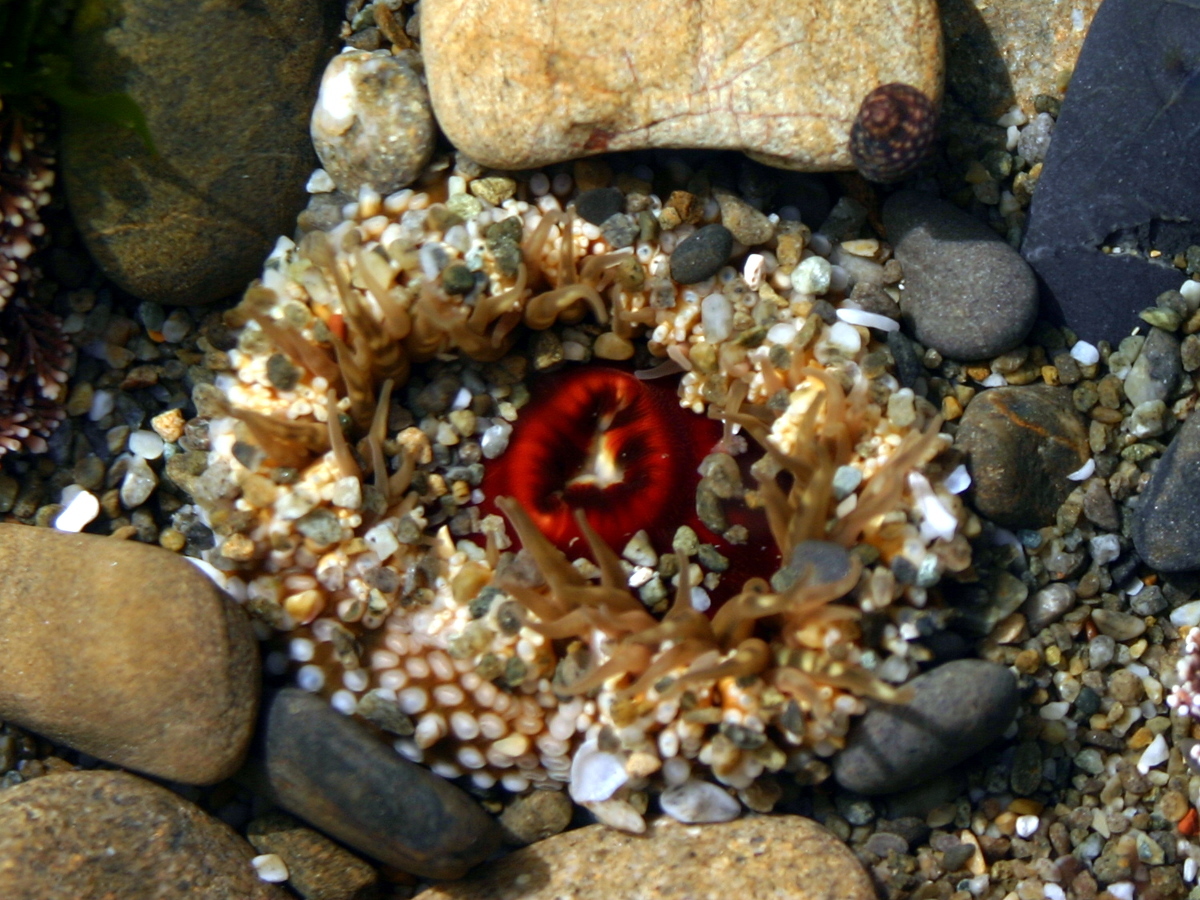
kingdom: Animalia
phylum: Cnidaria
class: Anthozoa
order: Actiniaria
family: Actiniidae
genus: Oulactis
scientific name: Oulactis muscosa
